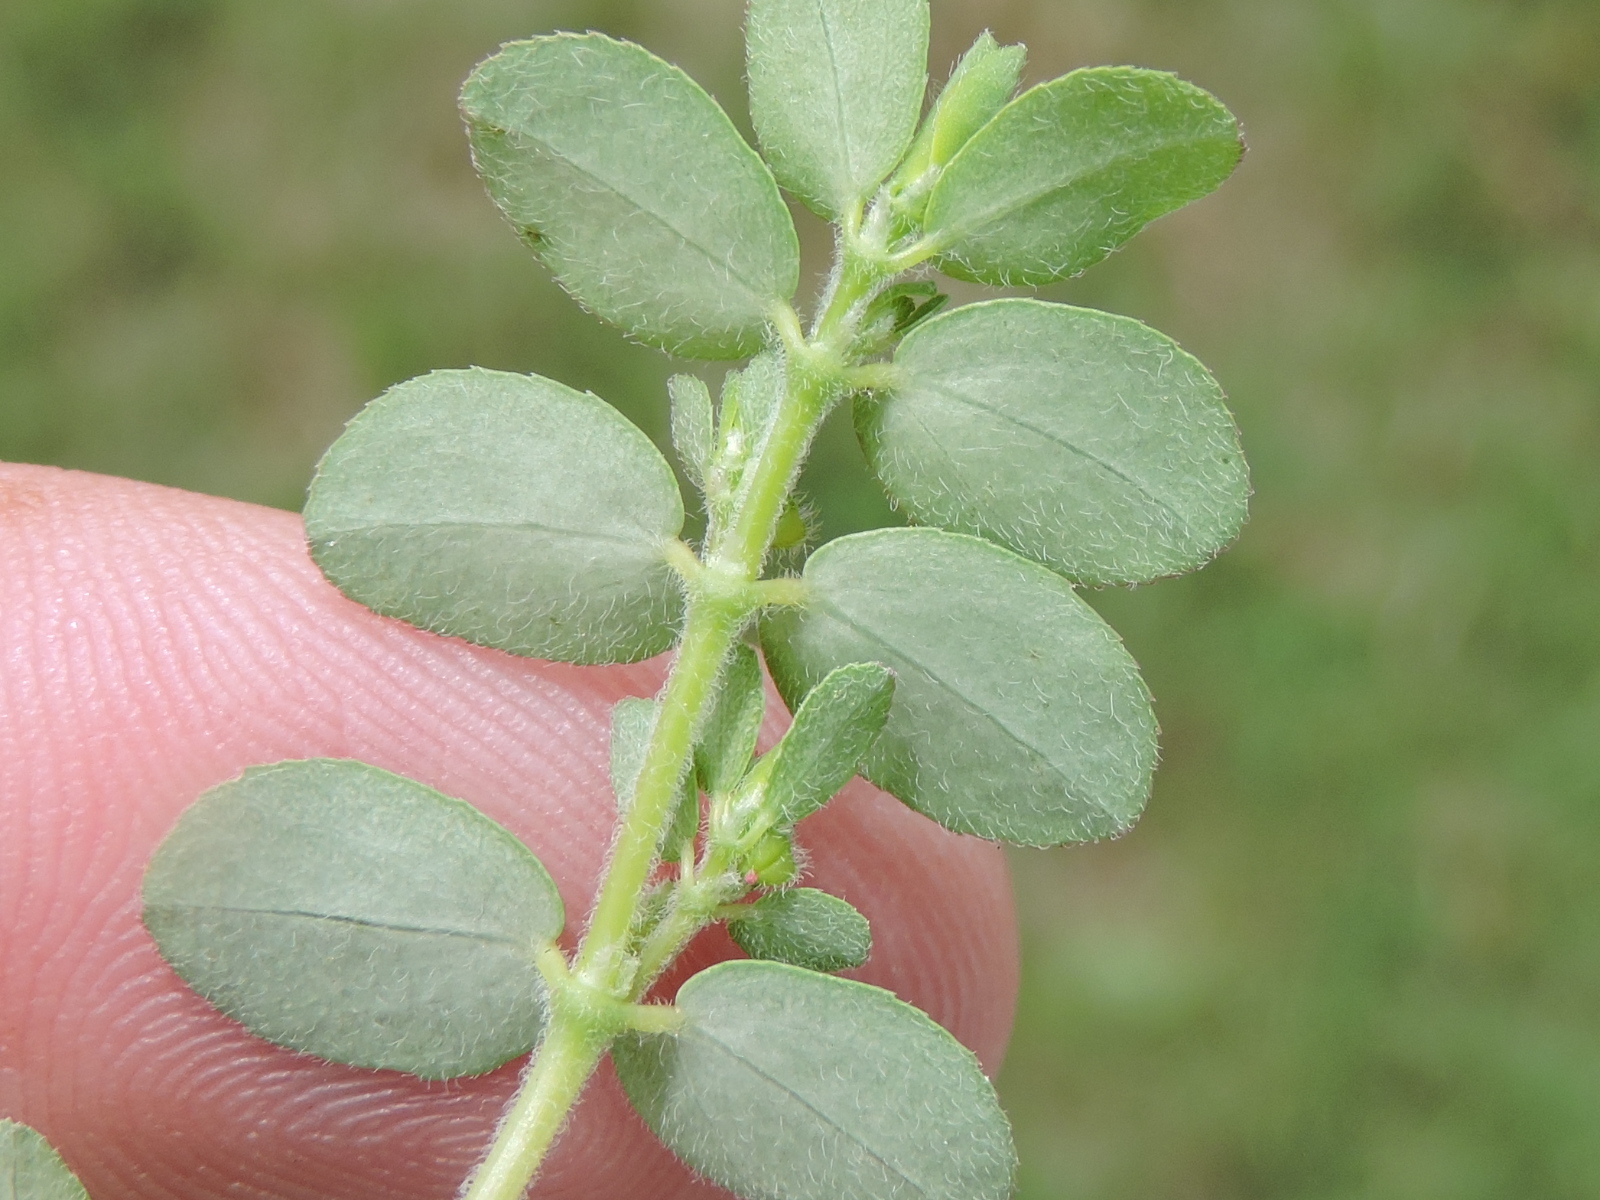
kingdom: Plantae
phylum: Tracheophyta
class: Magnoliopsida
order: Malpighiales
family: Euphorbiaceae
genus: Euphorbia
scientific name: Euphorbia prostrata
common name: Prostrate sandmat
